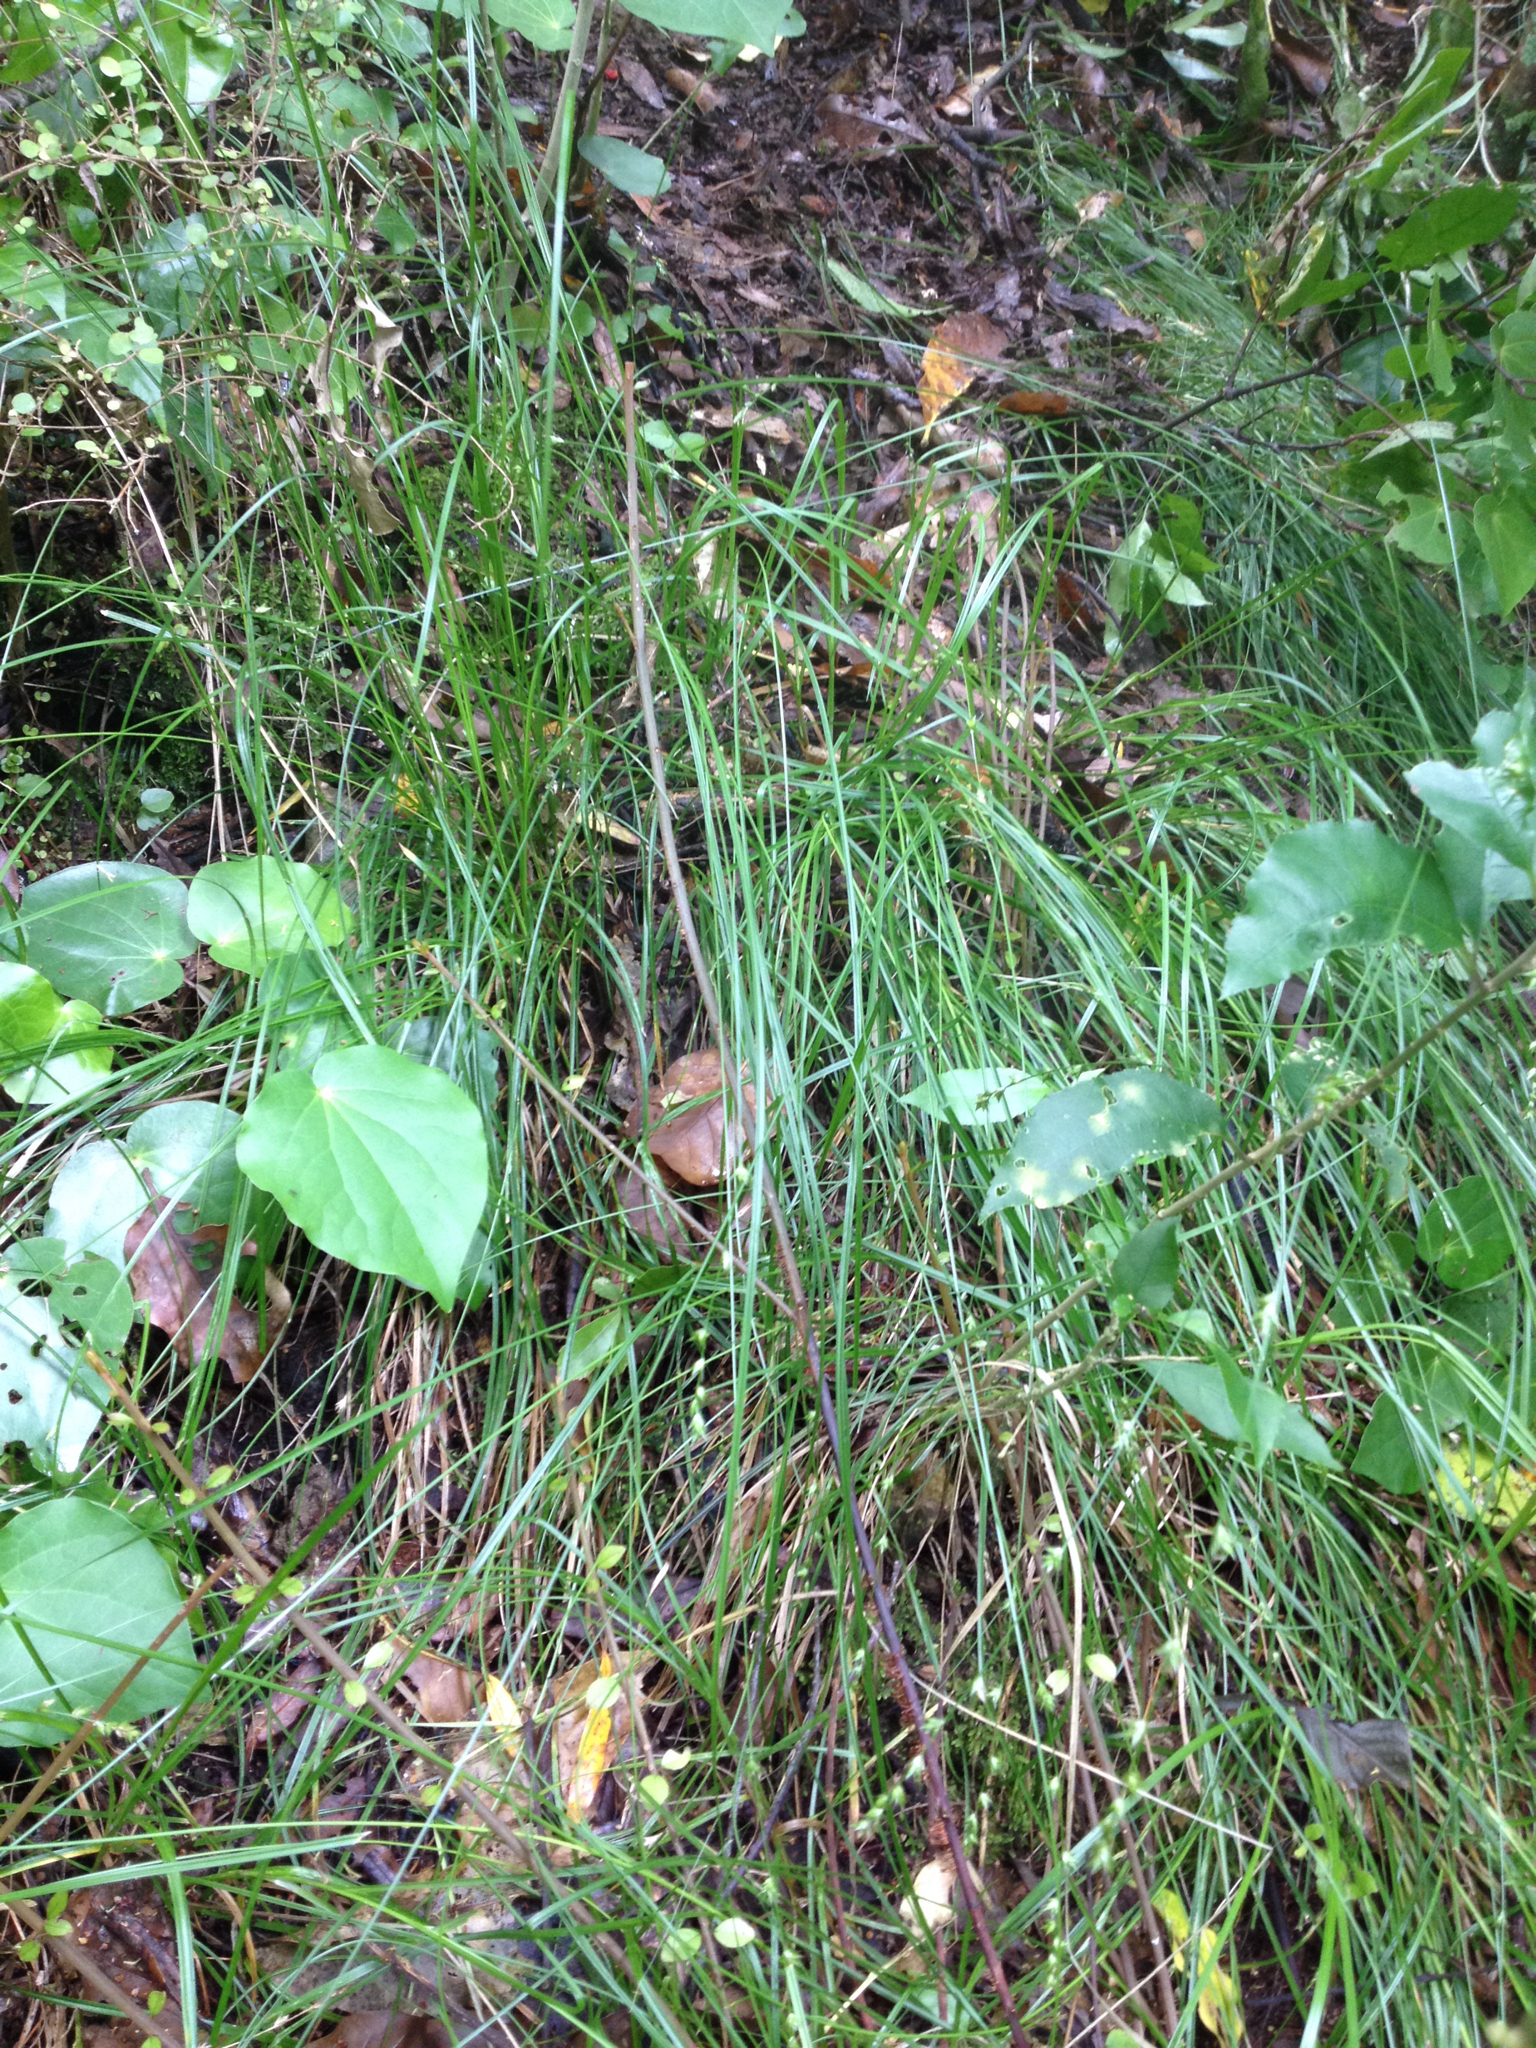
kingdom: Plantae
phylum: Tracheophyta
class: Liliopsida
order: Poales
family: Cyperaceae
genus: Carex
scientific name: Carex longebrachiata
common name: Drooping sedge
